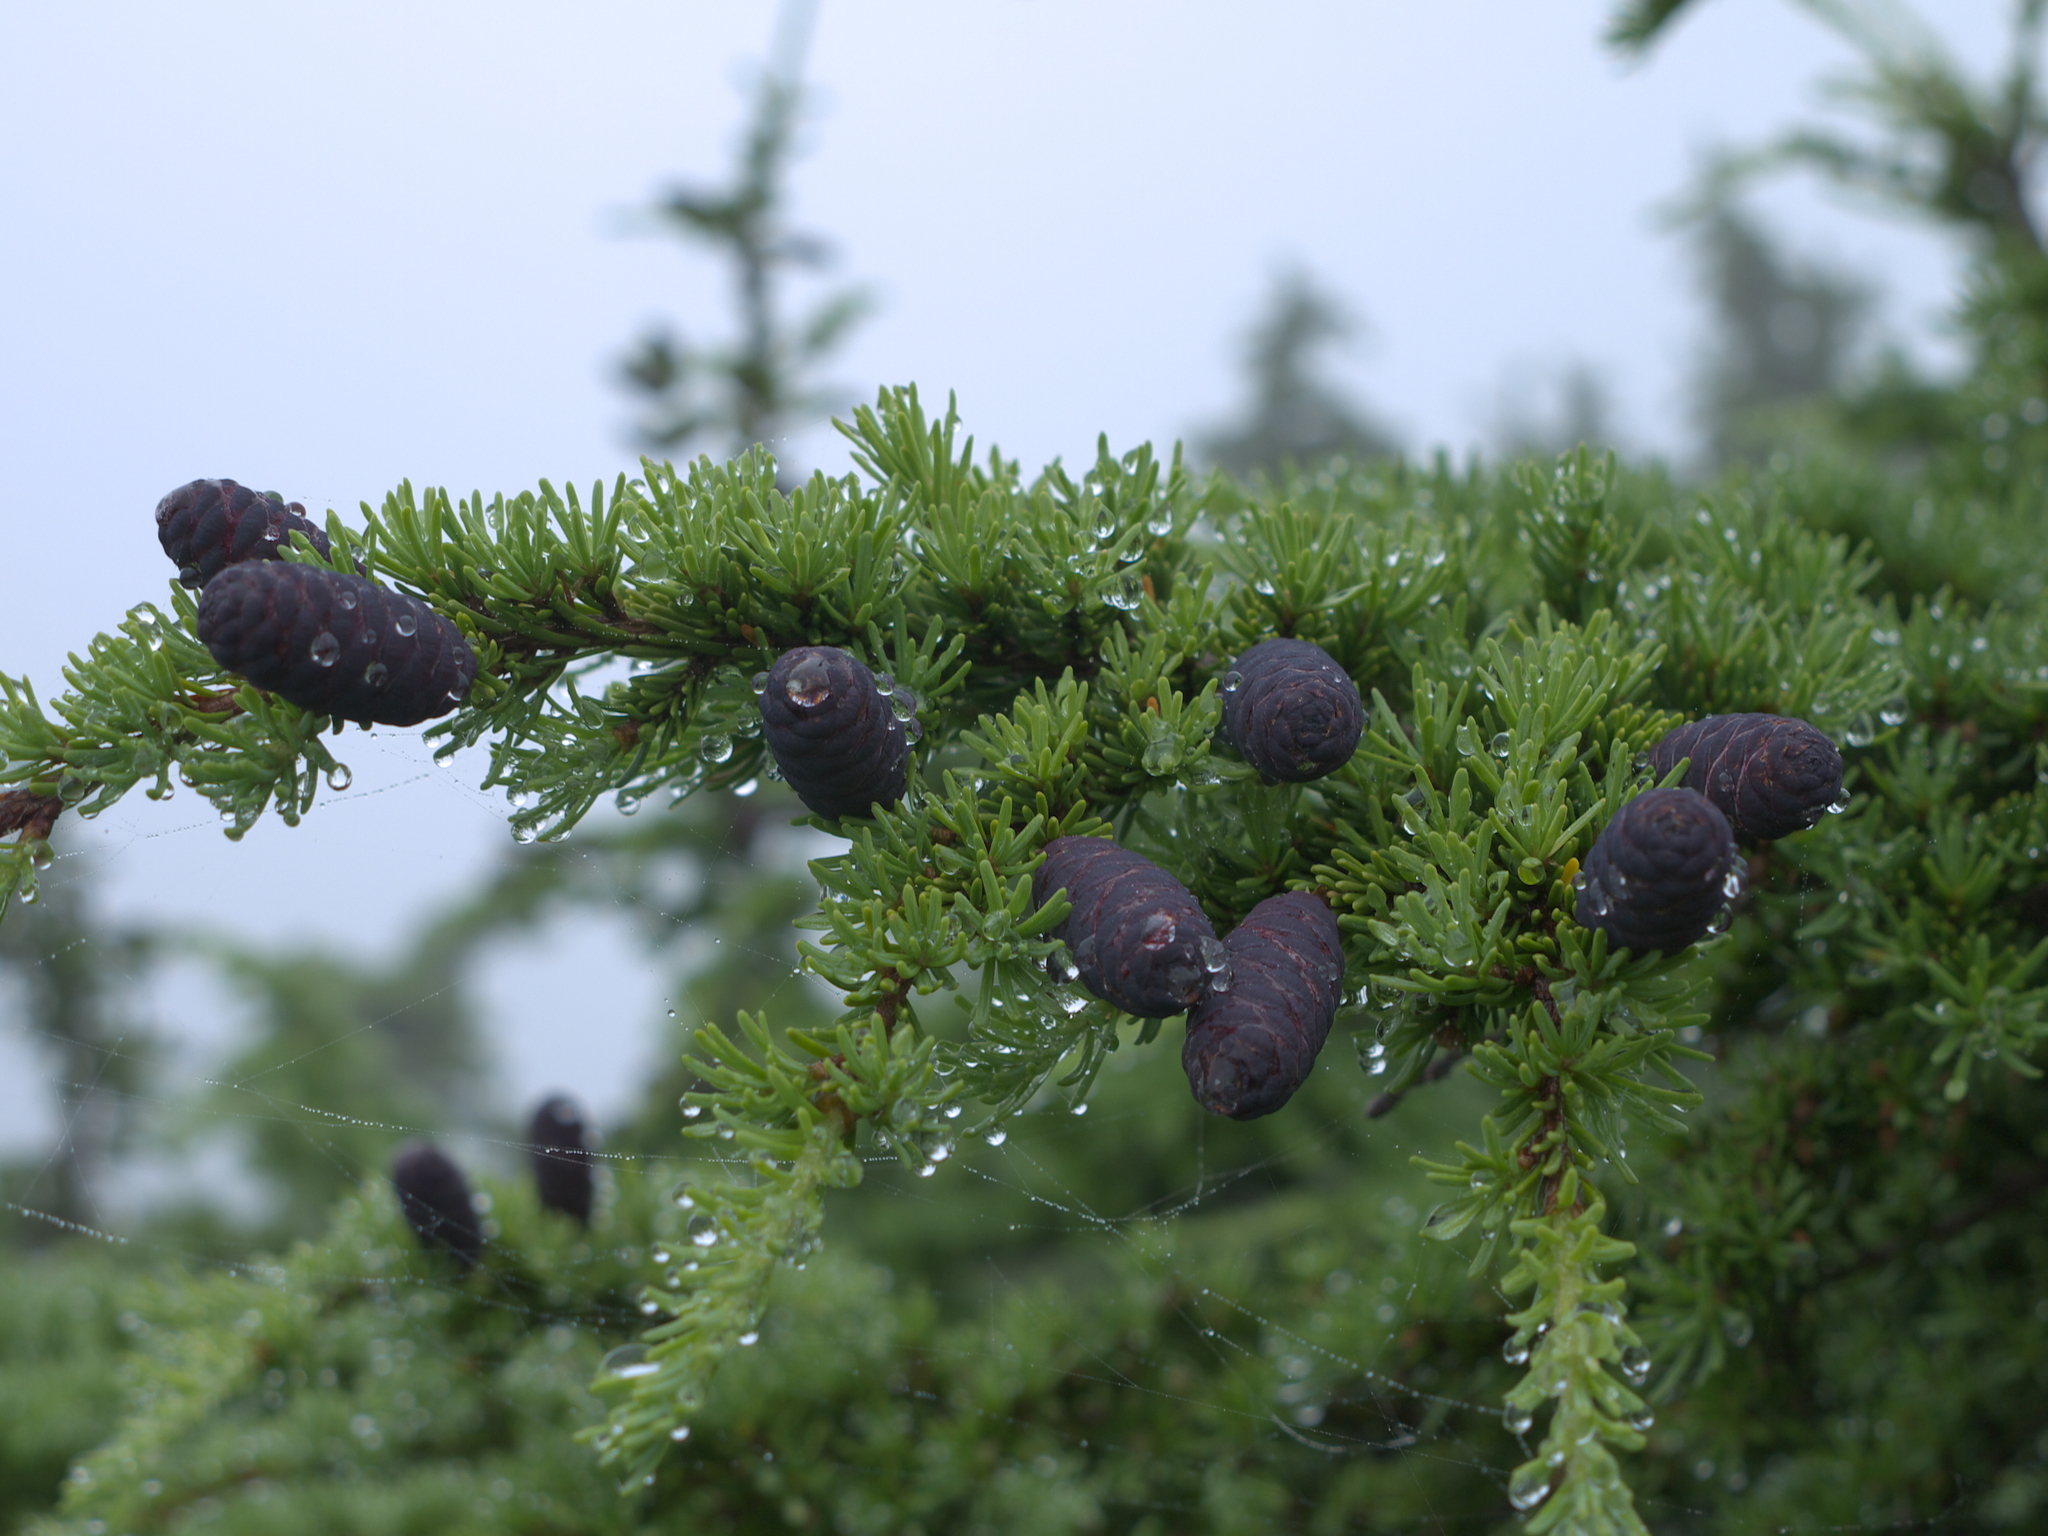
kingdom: Plantae
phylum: Tracheophyta
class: Pinopsida
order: Pinales
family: Pinaceae
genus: Tsuga
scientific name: Tsuga mertensiana
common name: Mountain hemlock
